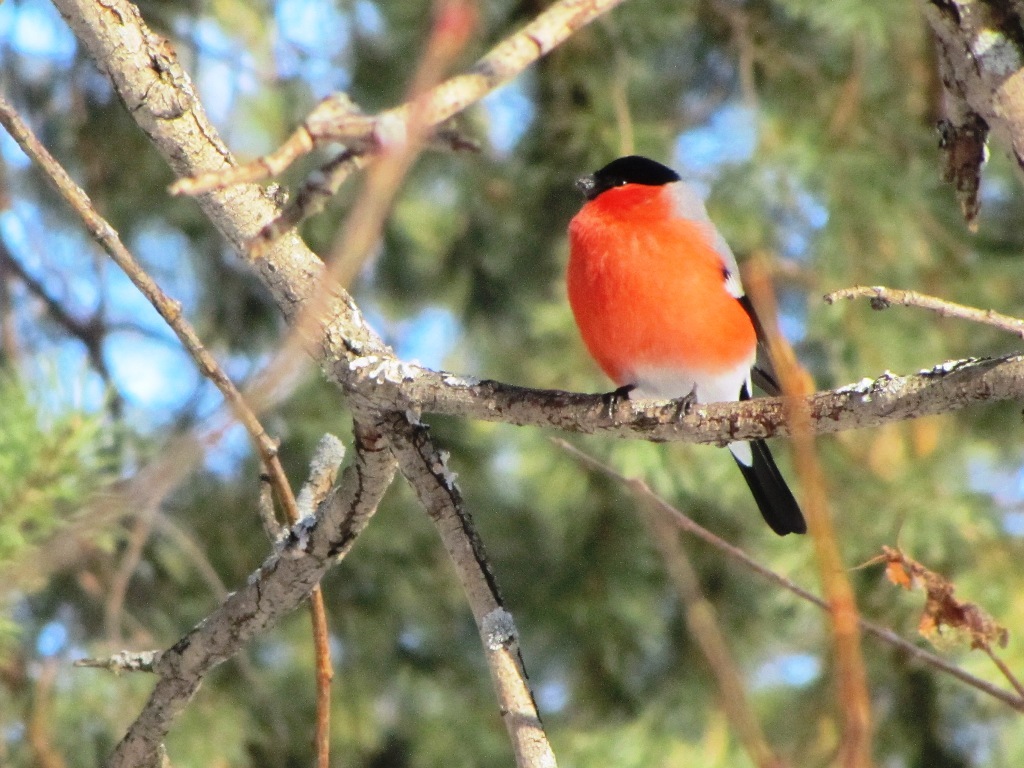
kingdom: Animalia
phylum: Chordata
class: Aves
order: Passeriformes
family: Fringillidae
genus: Pyrrhula
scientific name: Pyrrhula pyrrhula
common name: Eurasian bullfinch
